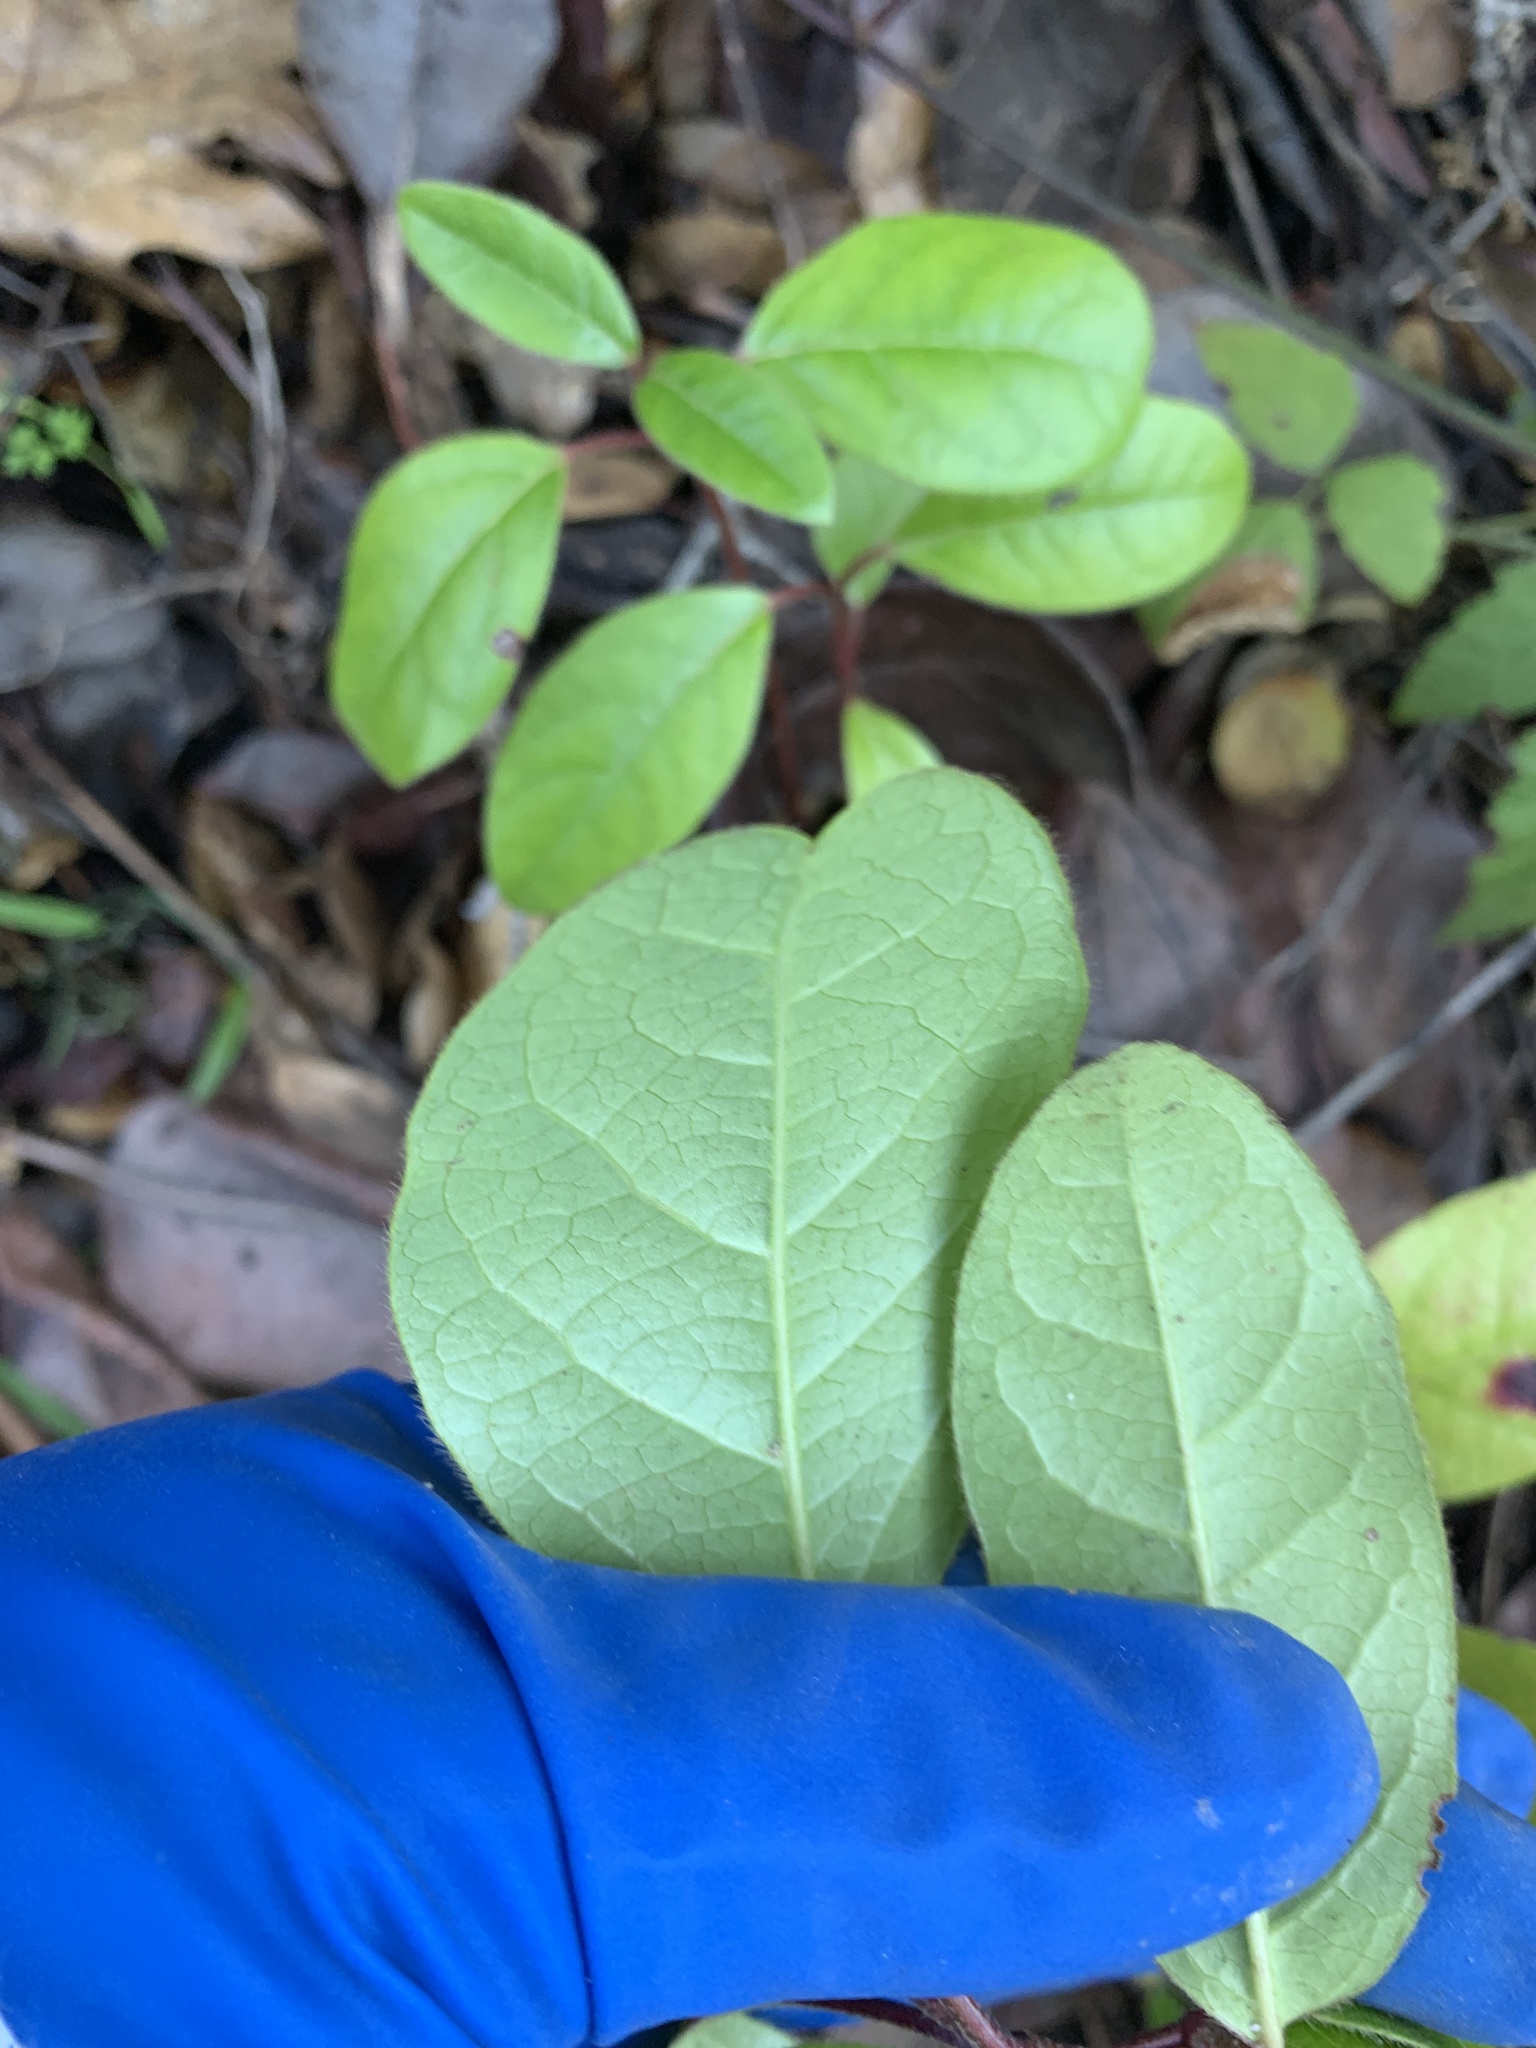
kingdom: Plantae
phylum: Tracheophyta
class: Magnoliopsida
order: Dipsacales
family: Viburnaceae
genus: Viburnum
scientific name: Viburnum tinus
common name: Laurustinus
